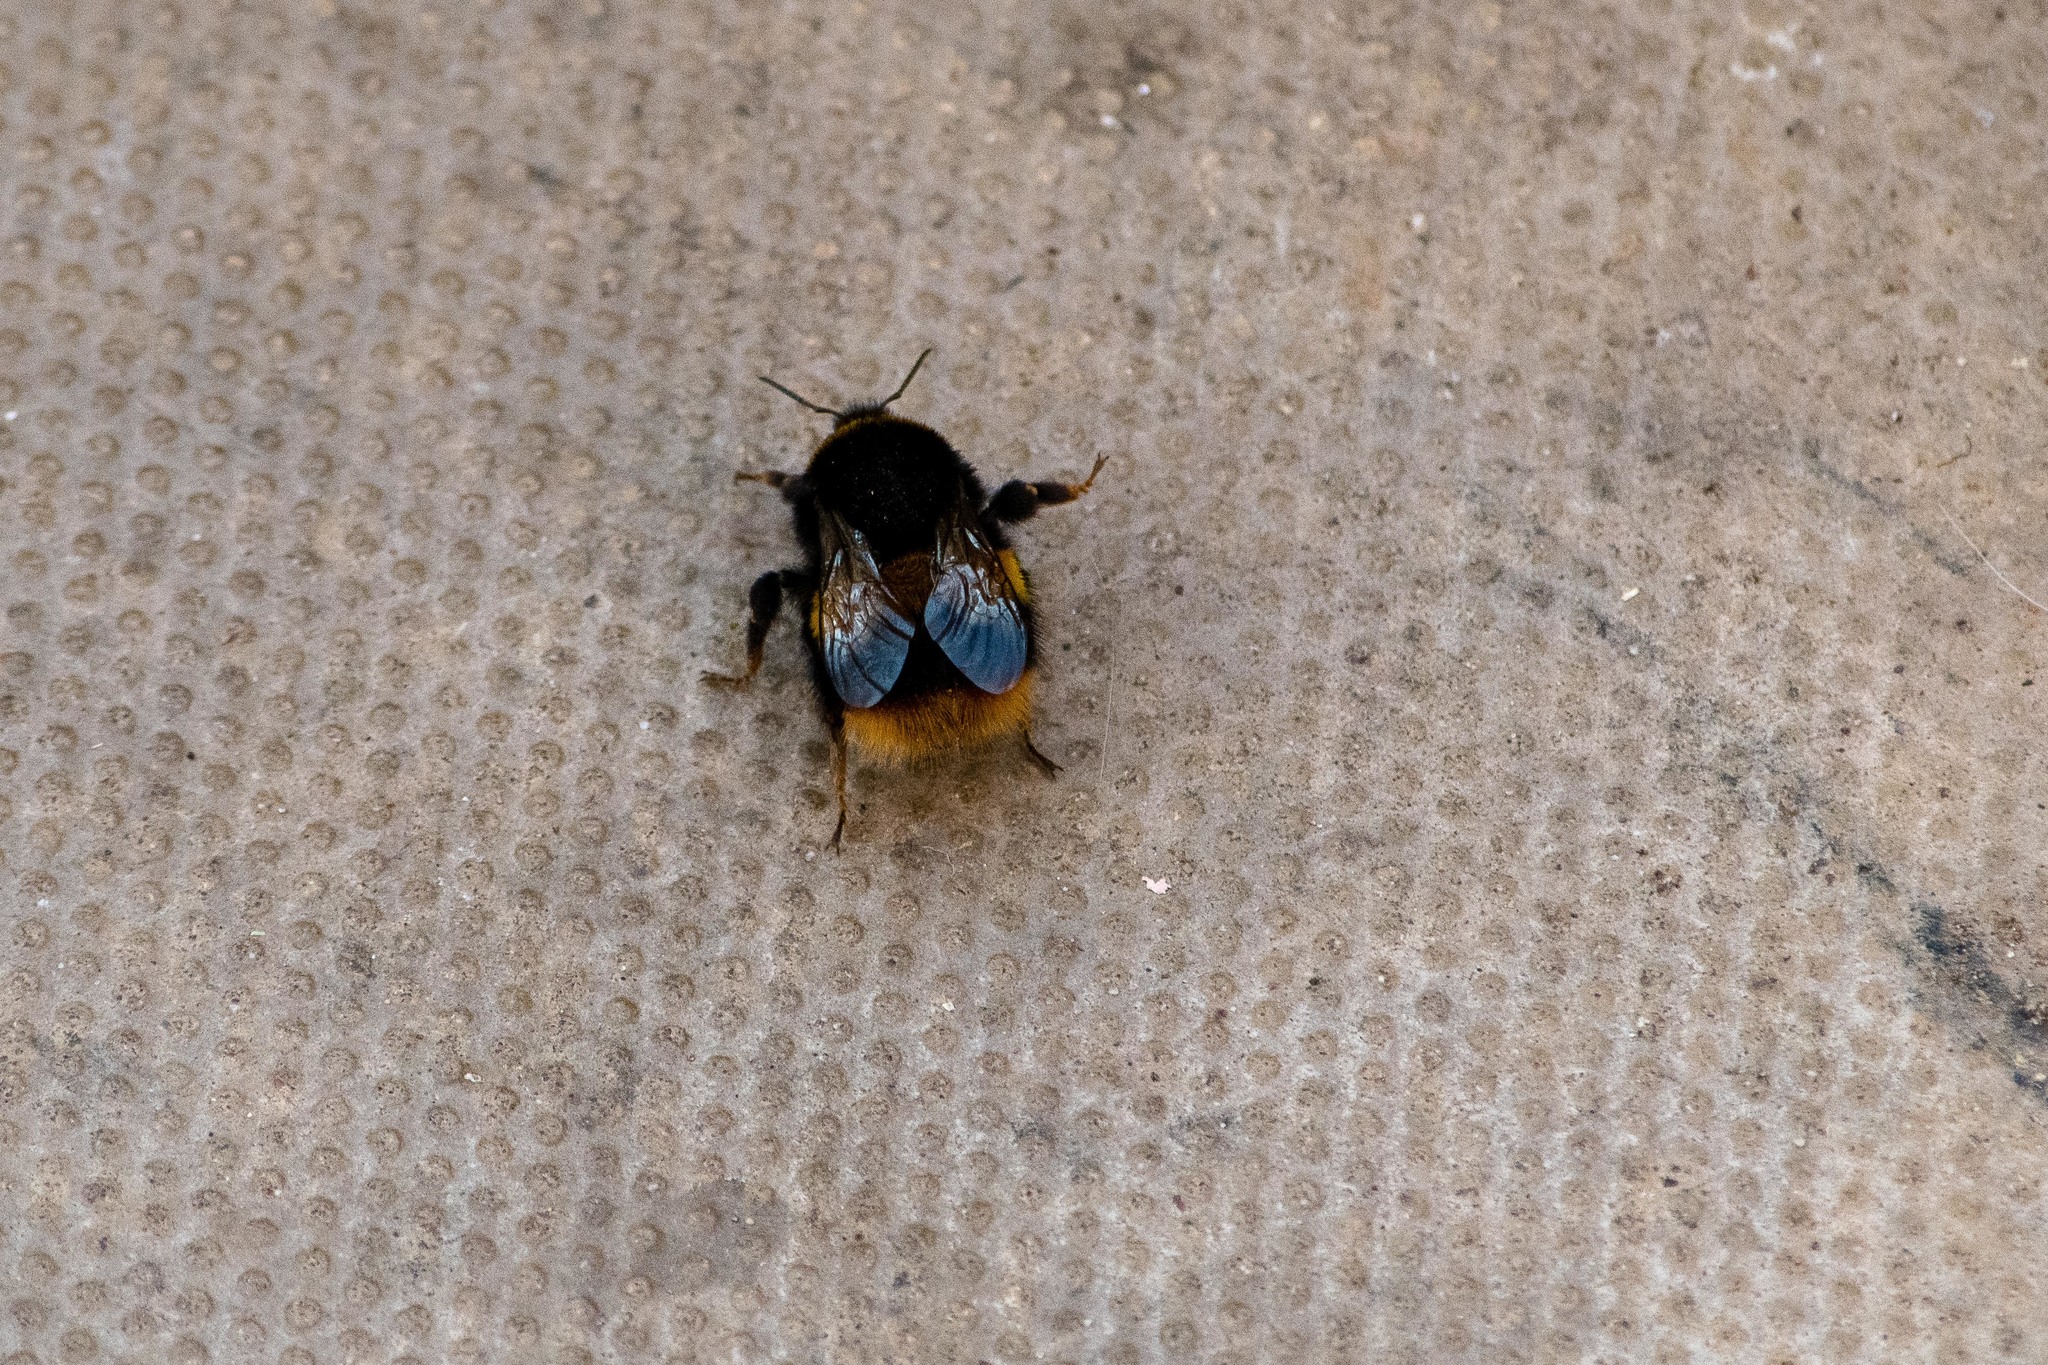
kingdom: Animalia
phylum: Arthropoda
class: Insecta
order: Hymenoptera
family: Apidae
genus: Bombus
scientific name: Bombus terrestris
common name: Buff-tailed bumblebee
